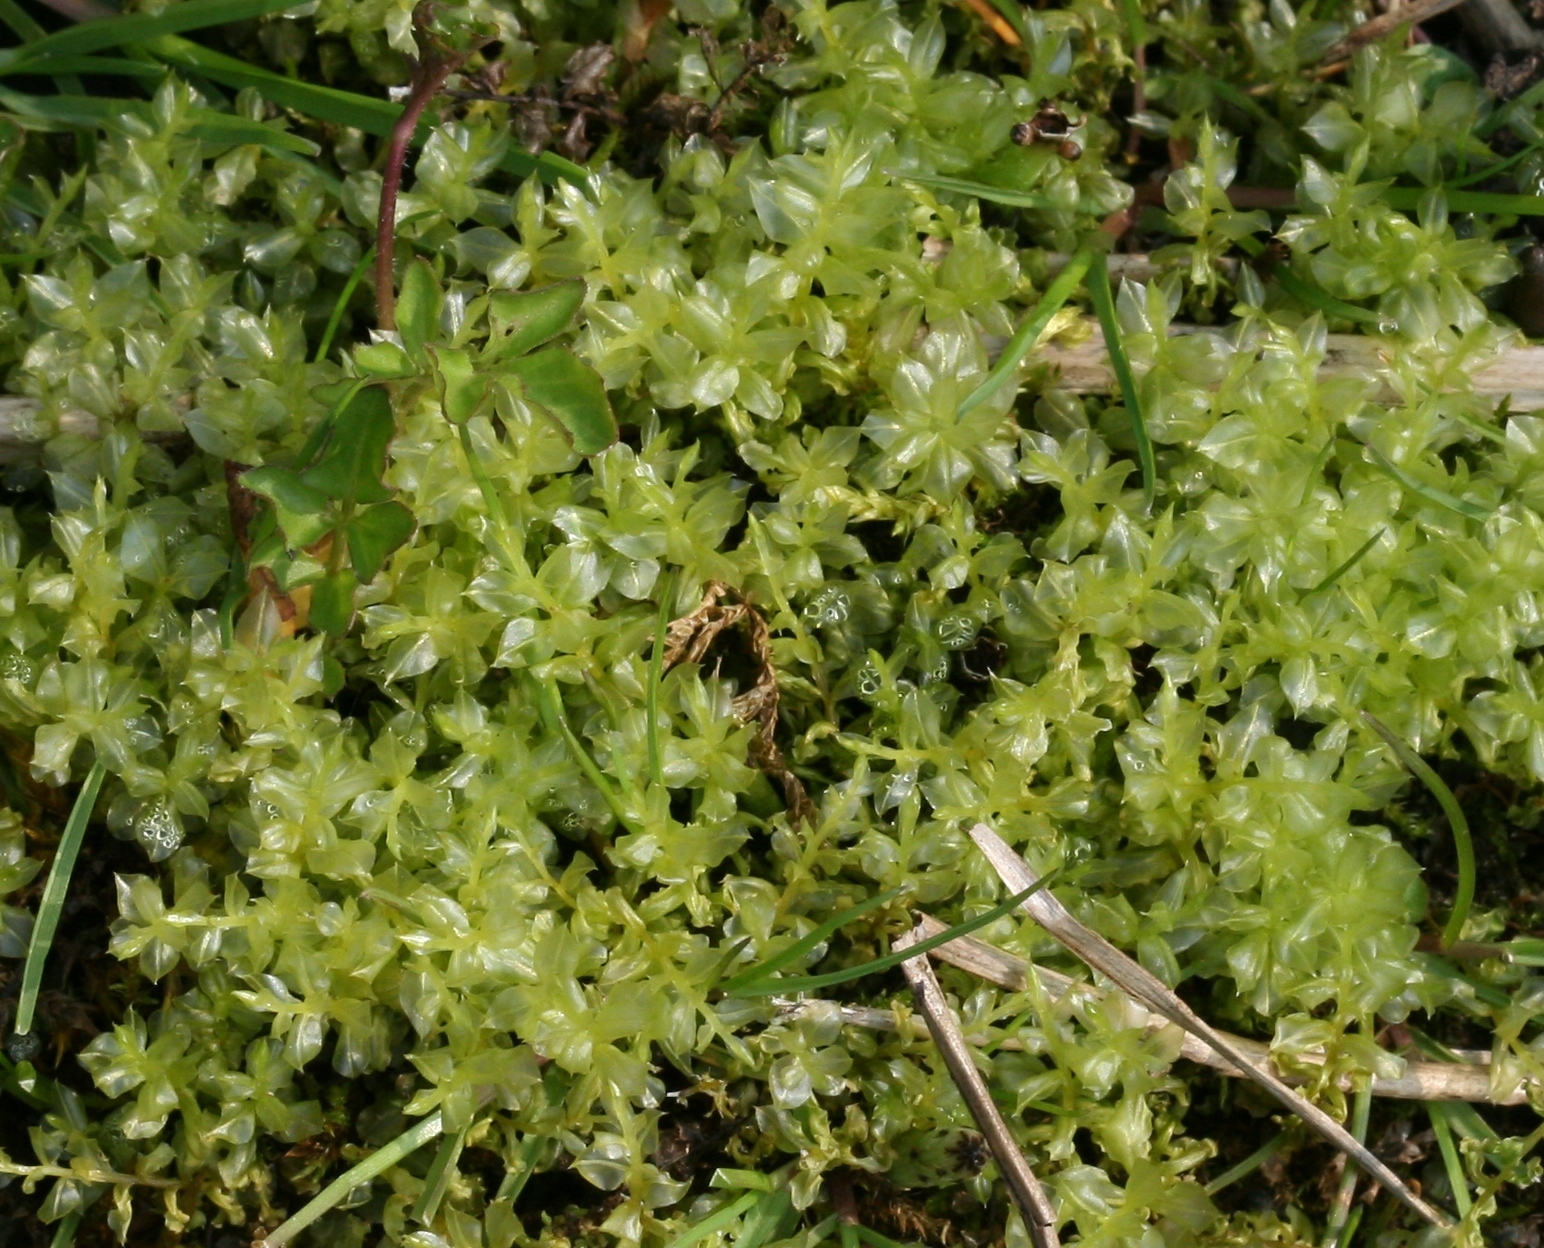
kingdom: Plantae
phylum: Bryophyta
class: Bryopsida
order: Bryales
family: Mniaceae
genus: Plagiomnium
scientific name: Plagiomnium cuspidatum
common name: Woodsy leafy moss
